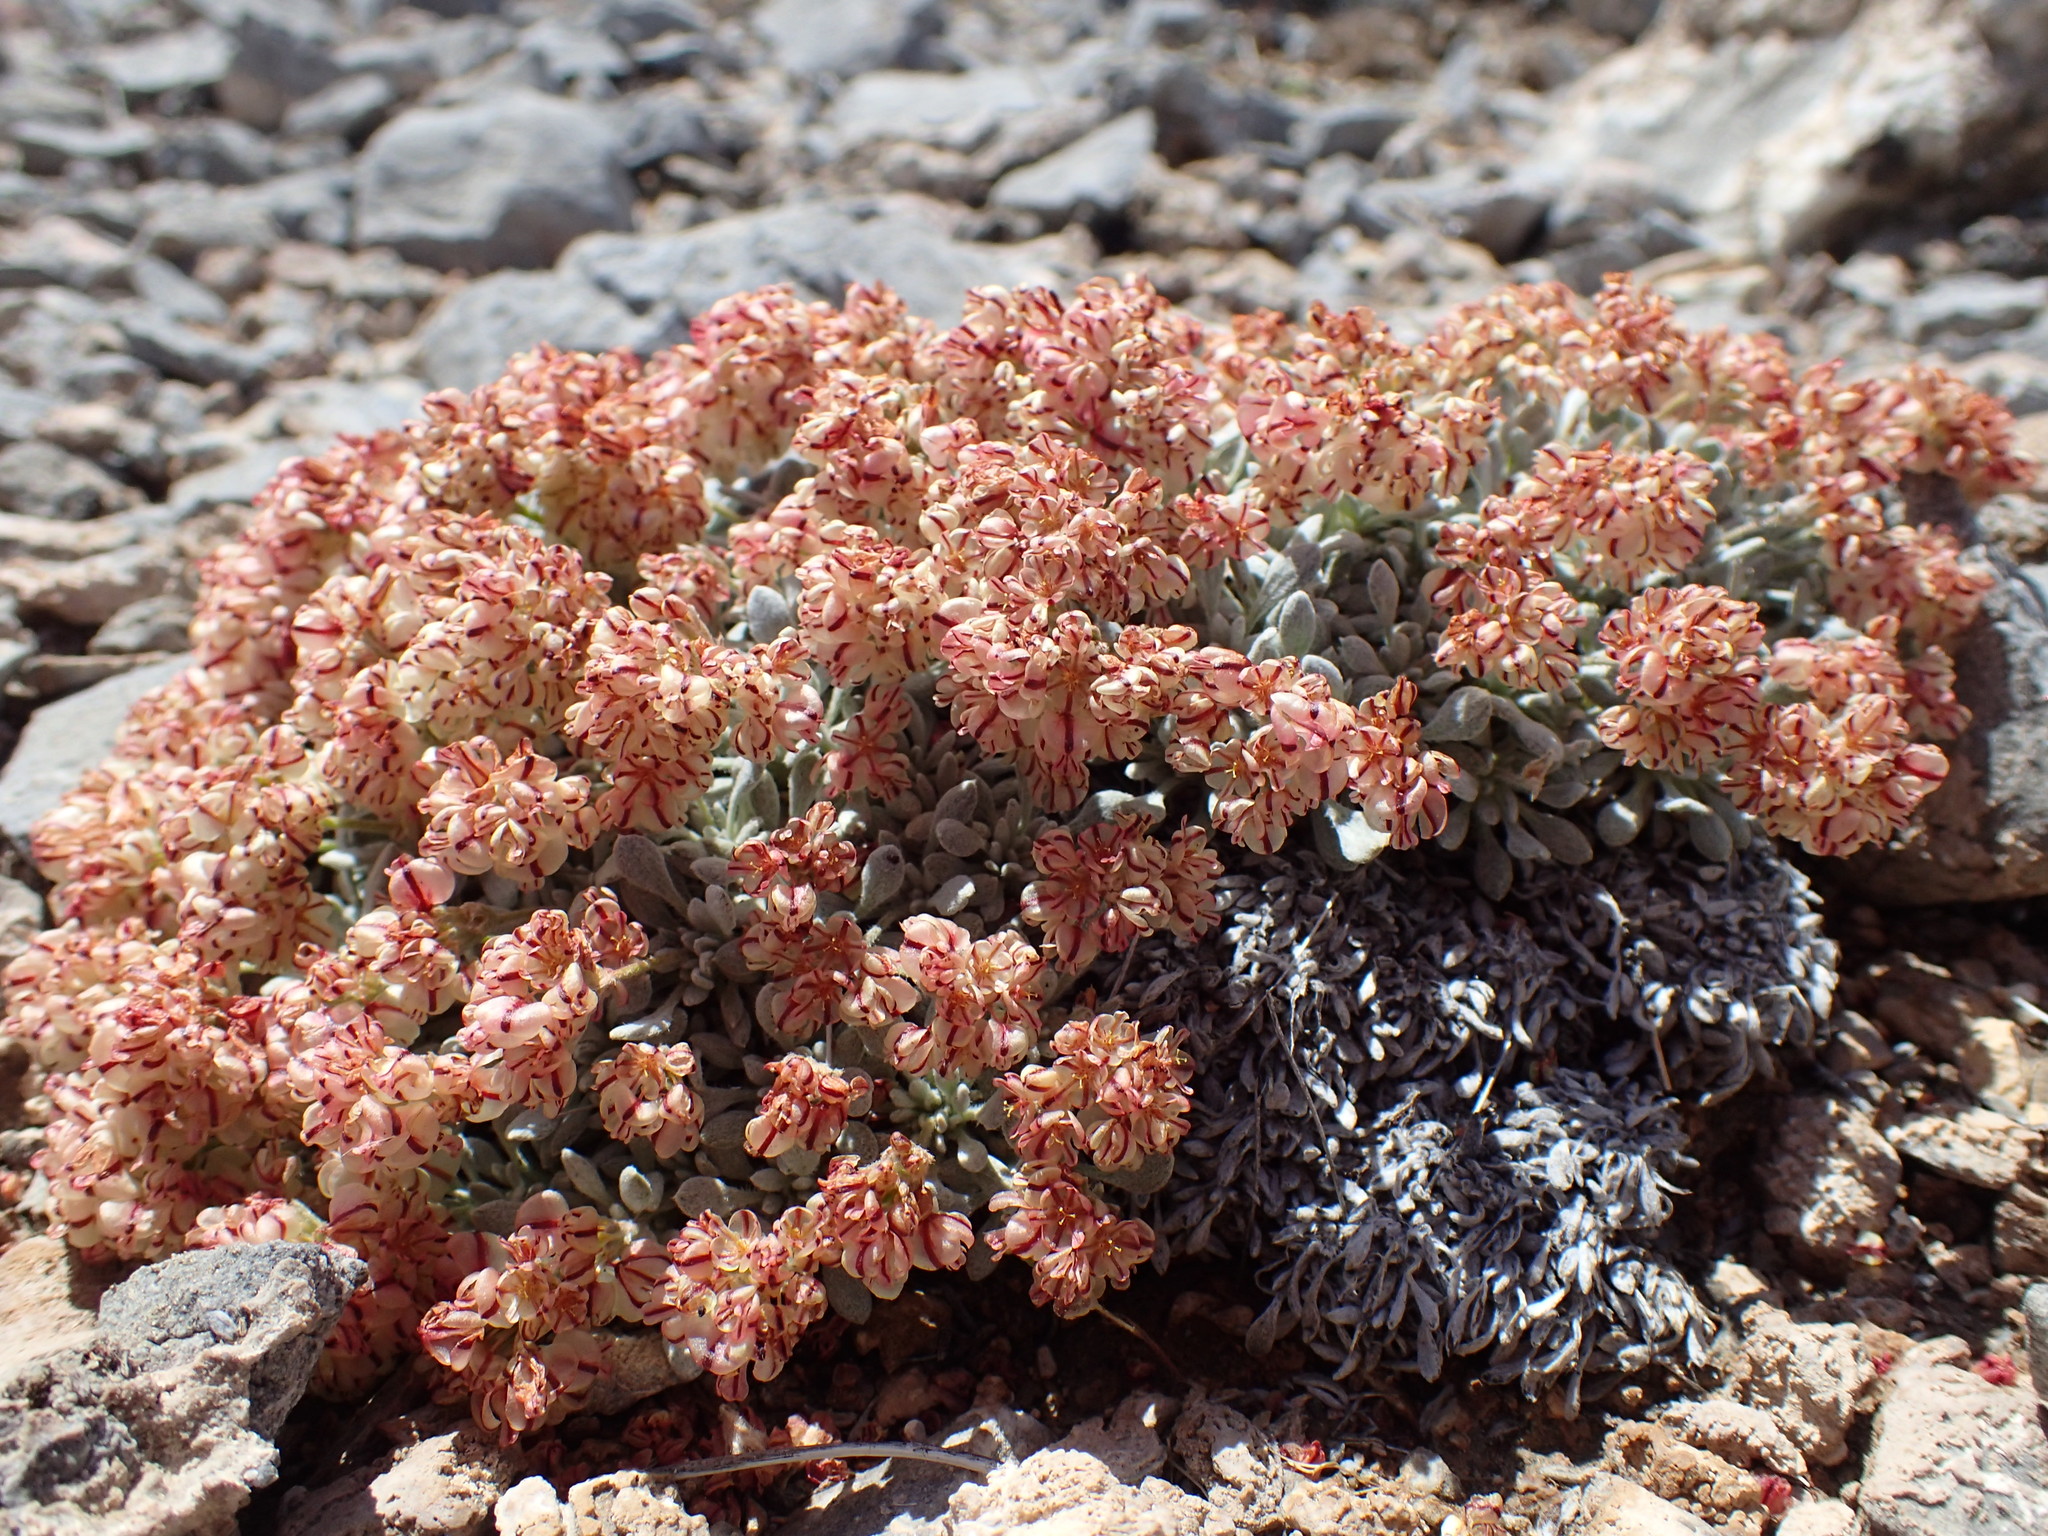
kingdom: Plantae
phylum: Tracheophyta
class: Magnoliopsida
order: Caryophyllales
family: Polygonaceae
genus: Eriogonum
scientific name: Eriogonum gilmanii
